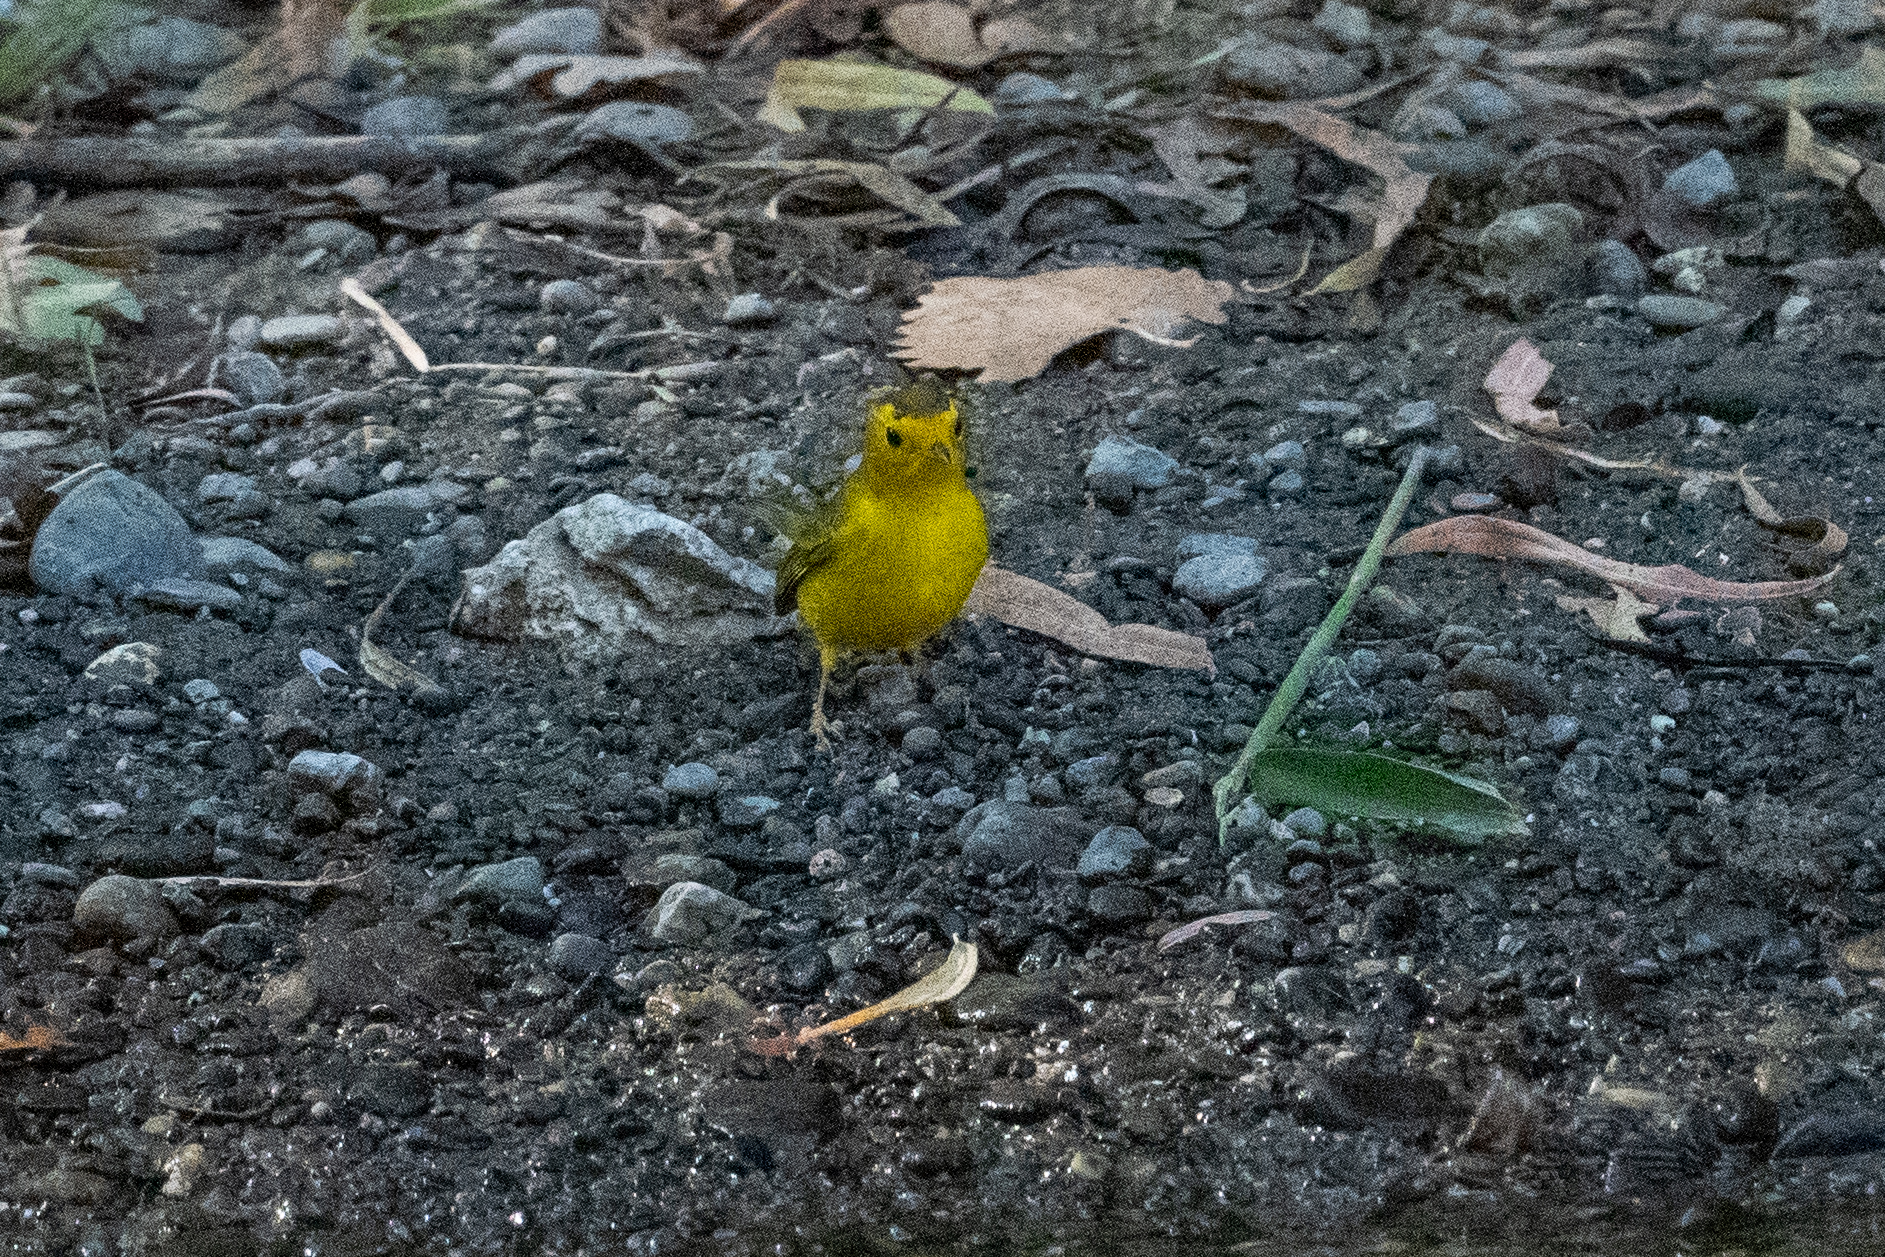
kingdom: Animalia
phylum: Chordata
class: Aves
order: Passeriformes
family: Parulidae
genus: Cardellina
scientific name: Cardellina pusilla
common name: Wilson's warbler
